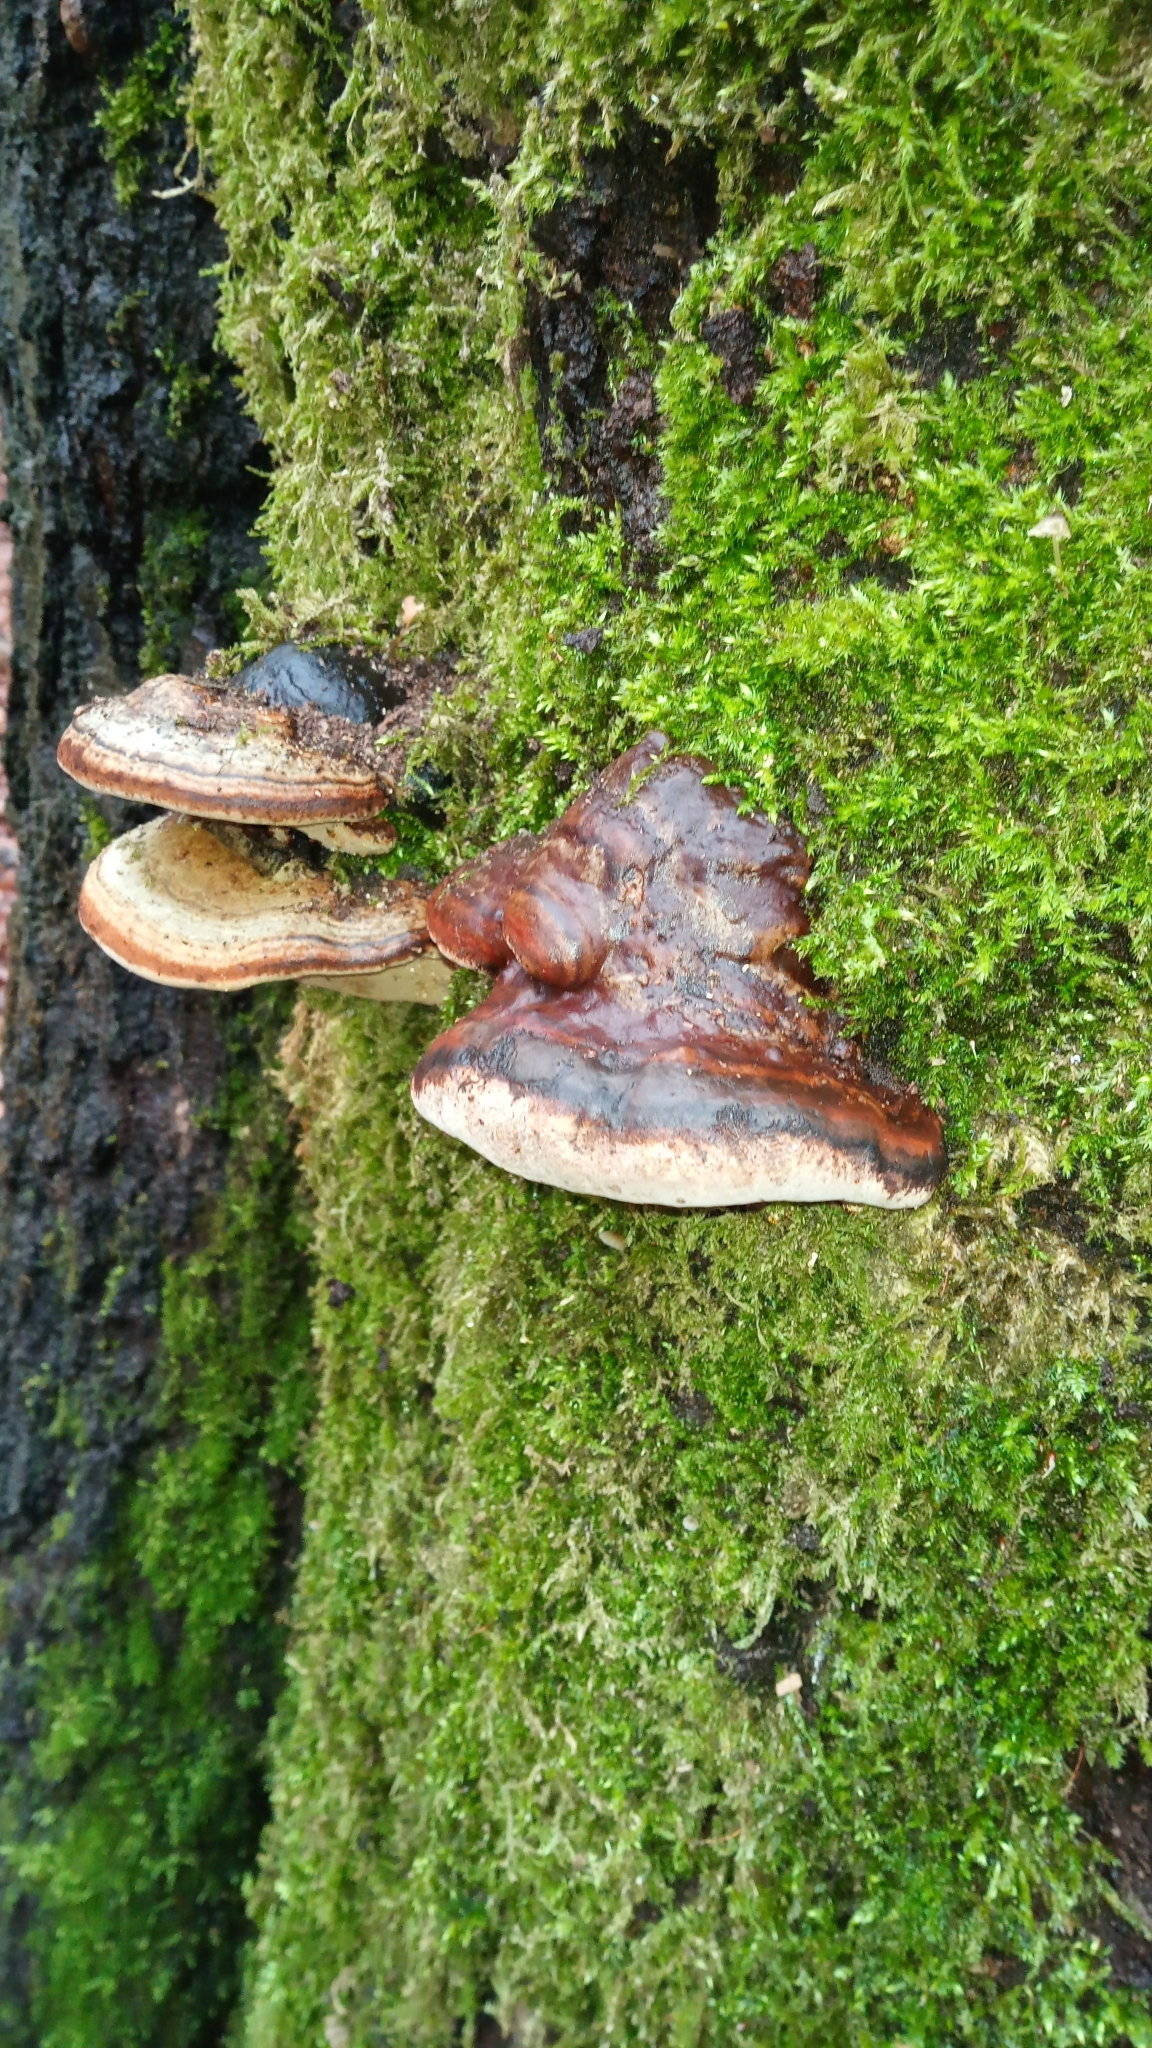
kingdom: Fungi
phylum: Basidiomycota
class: Agaricomycetes
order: Polyporales
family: Fomitopsidaceae
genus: Fomitopsis
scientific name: Fomitopsis pinicola
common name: Red-belted bracket
